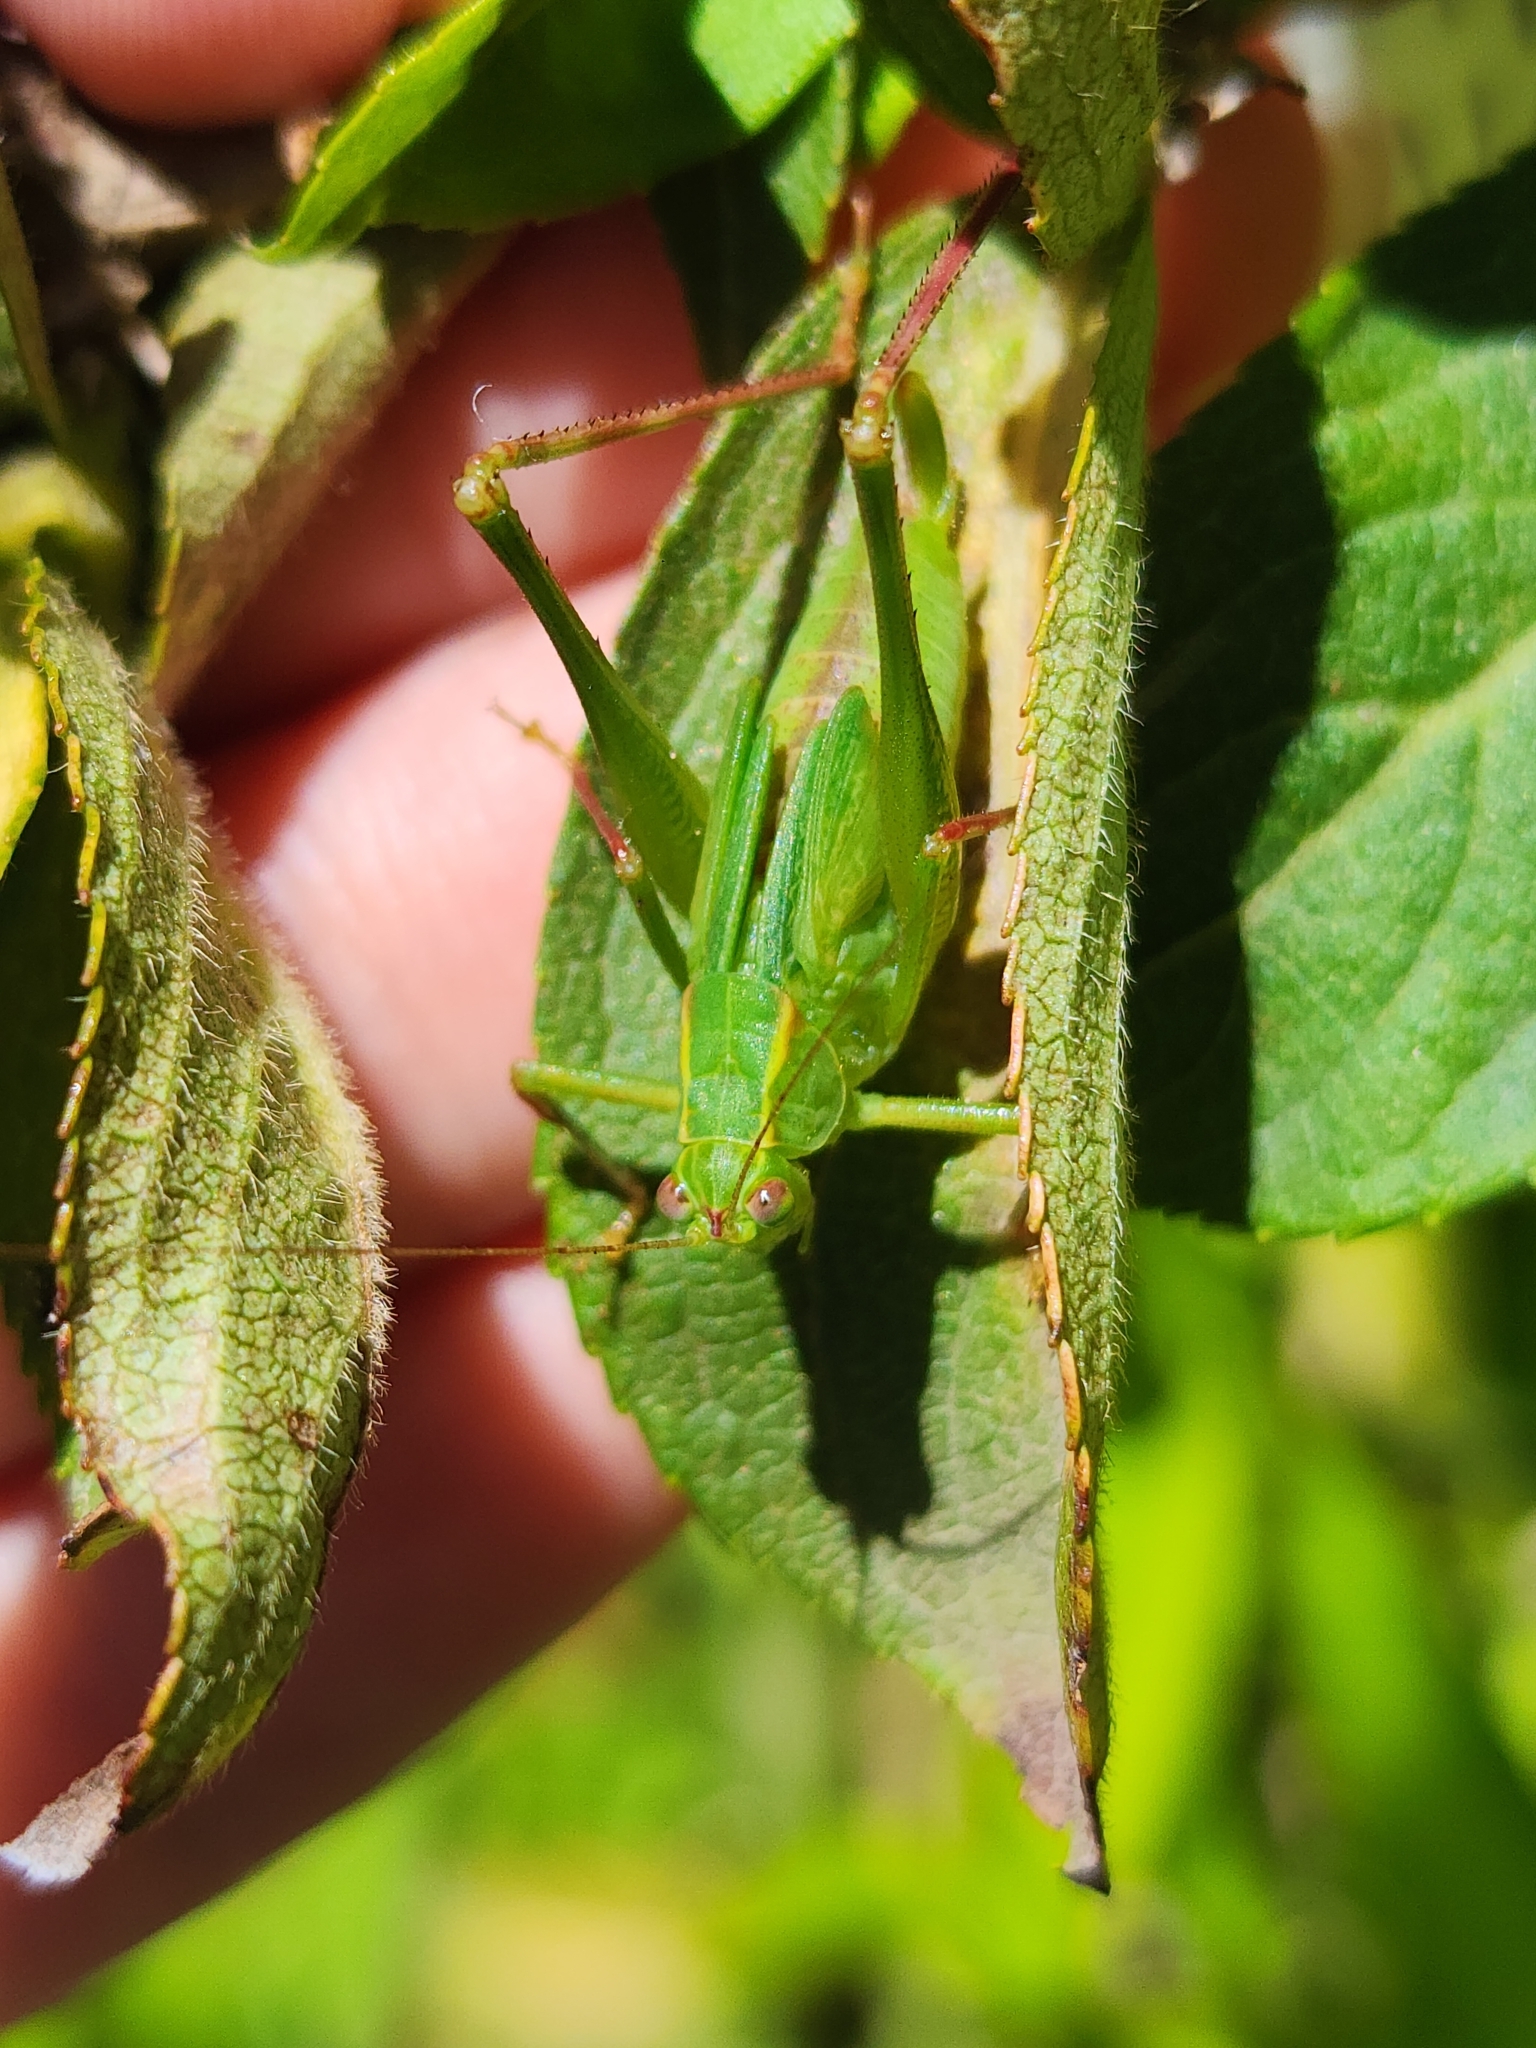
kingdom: Animalia
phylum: Arthropoda
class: Insecta
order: Orthoptera
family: Tettigoniidae
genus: Ligocatinus
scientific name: Ligocatinus spinatus
